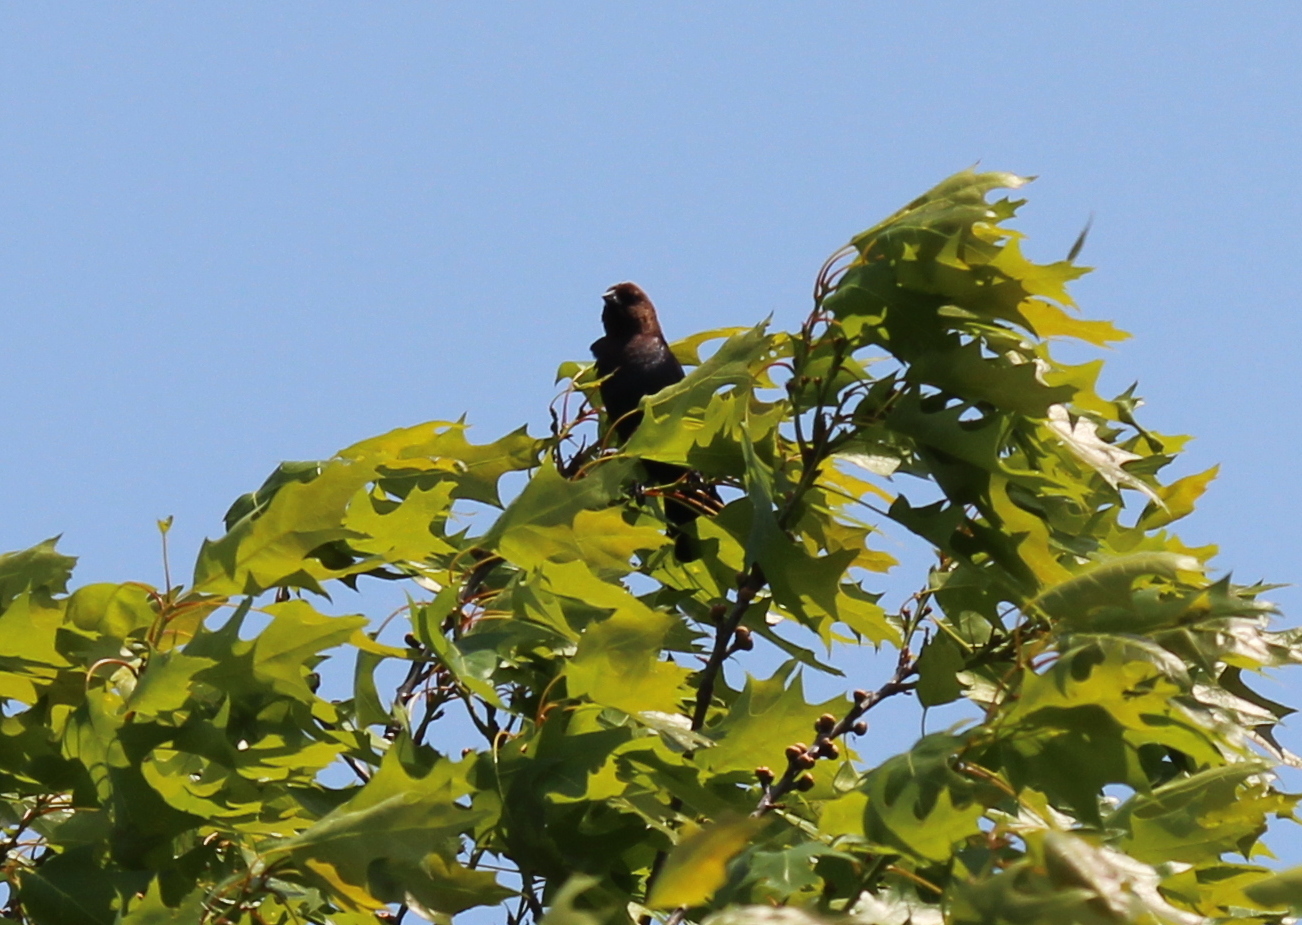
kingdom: Animalia
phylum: Chordata
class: Aves
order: Passeriformes
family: Icteridae
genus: Molothrus
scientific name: Molothrus ater
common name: Brown-headed cowbird
